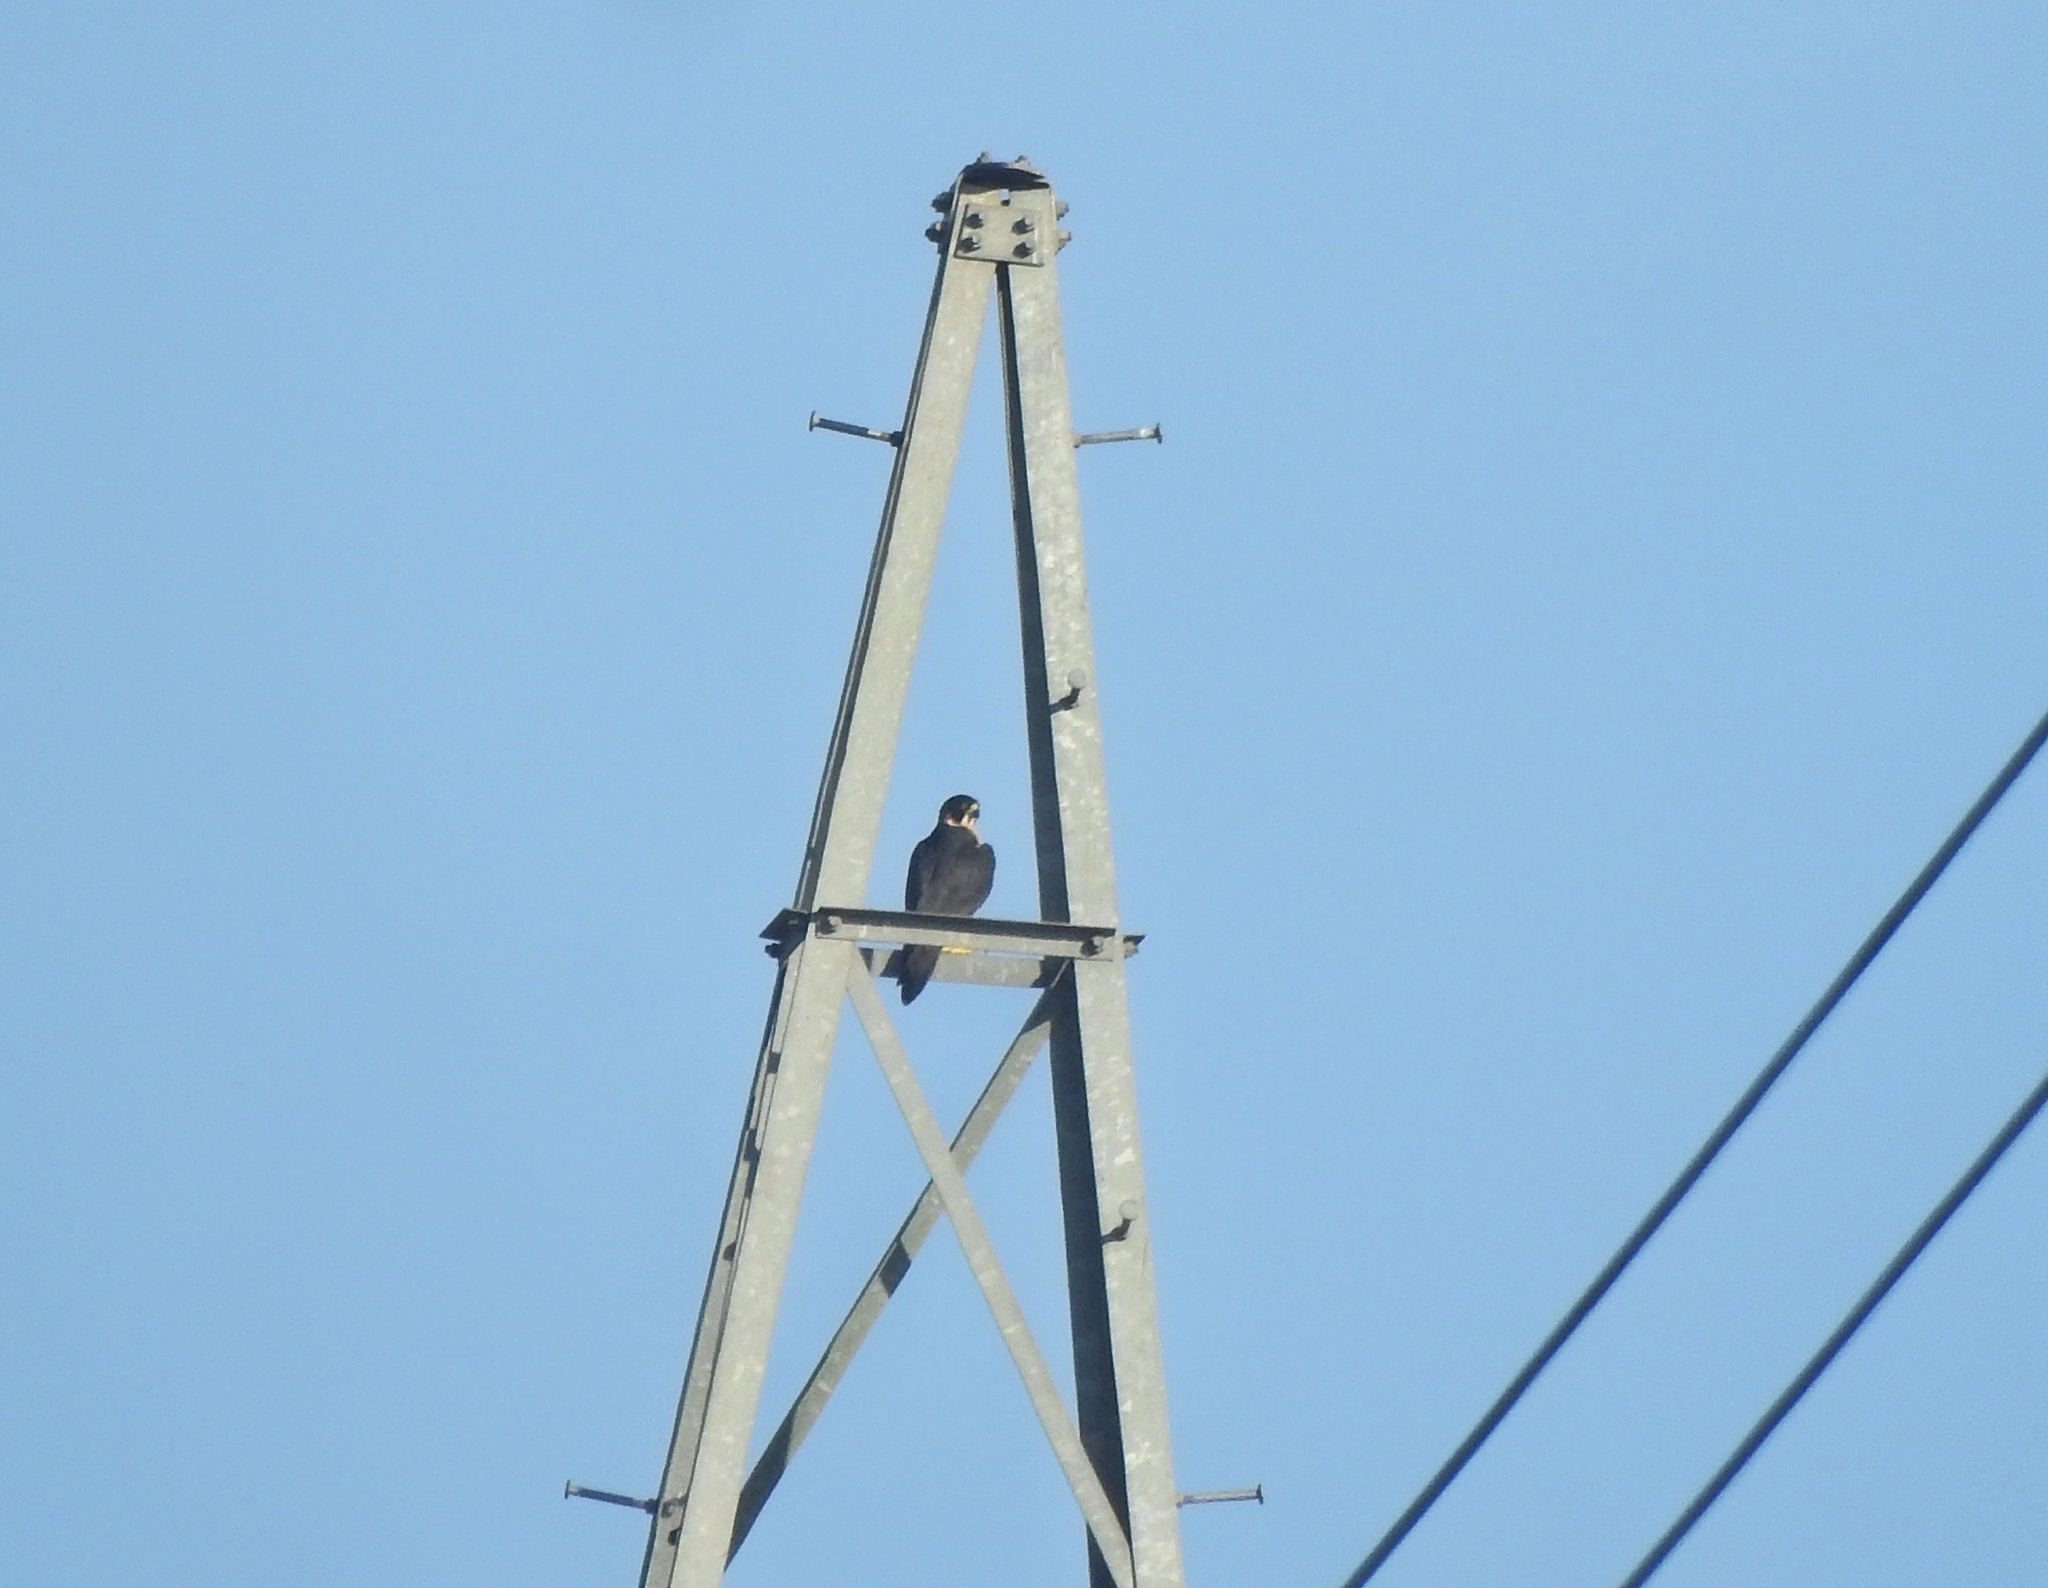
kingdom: Animalia
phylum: Chordata
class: Aves
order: Falconiformes
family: Falconidae
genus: Falco
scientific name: Falco peregrinus
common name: Peregrine falcon
